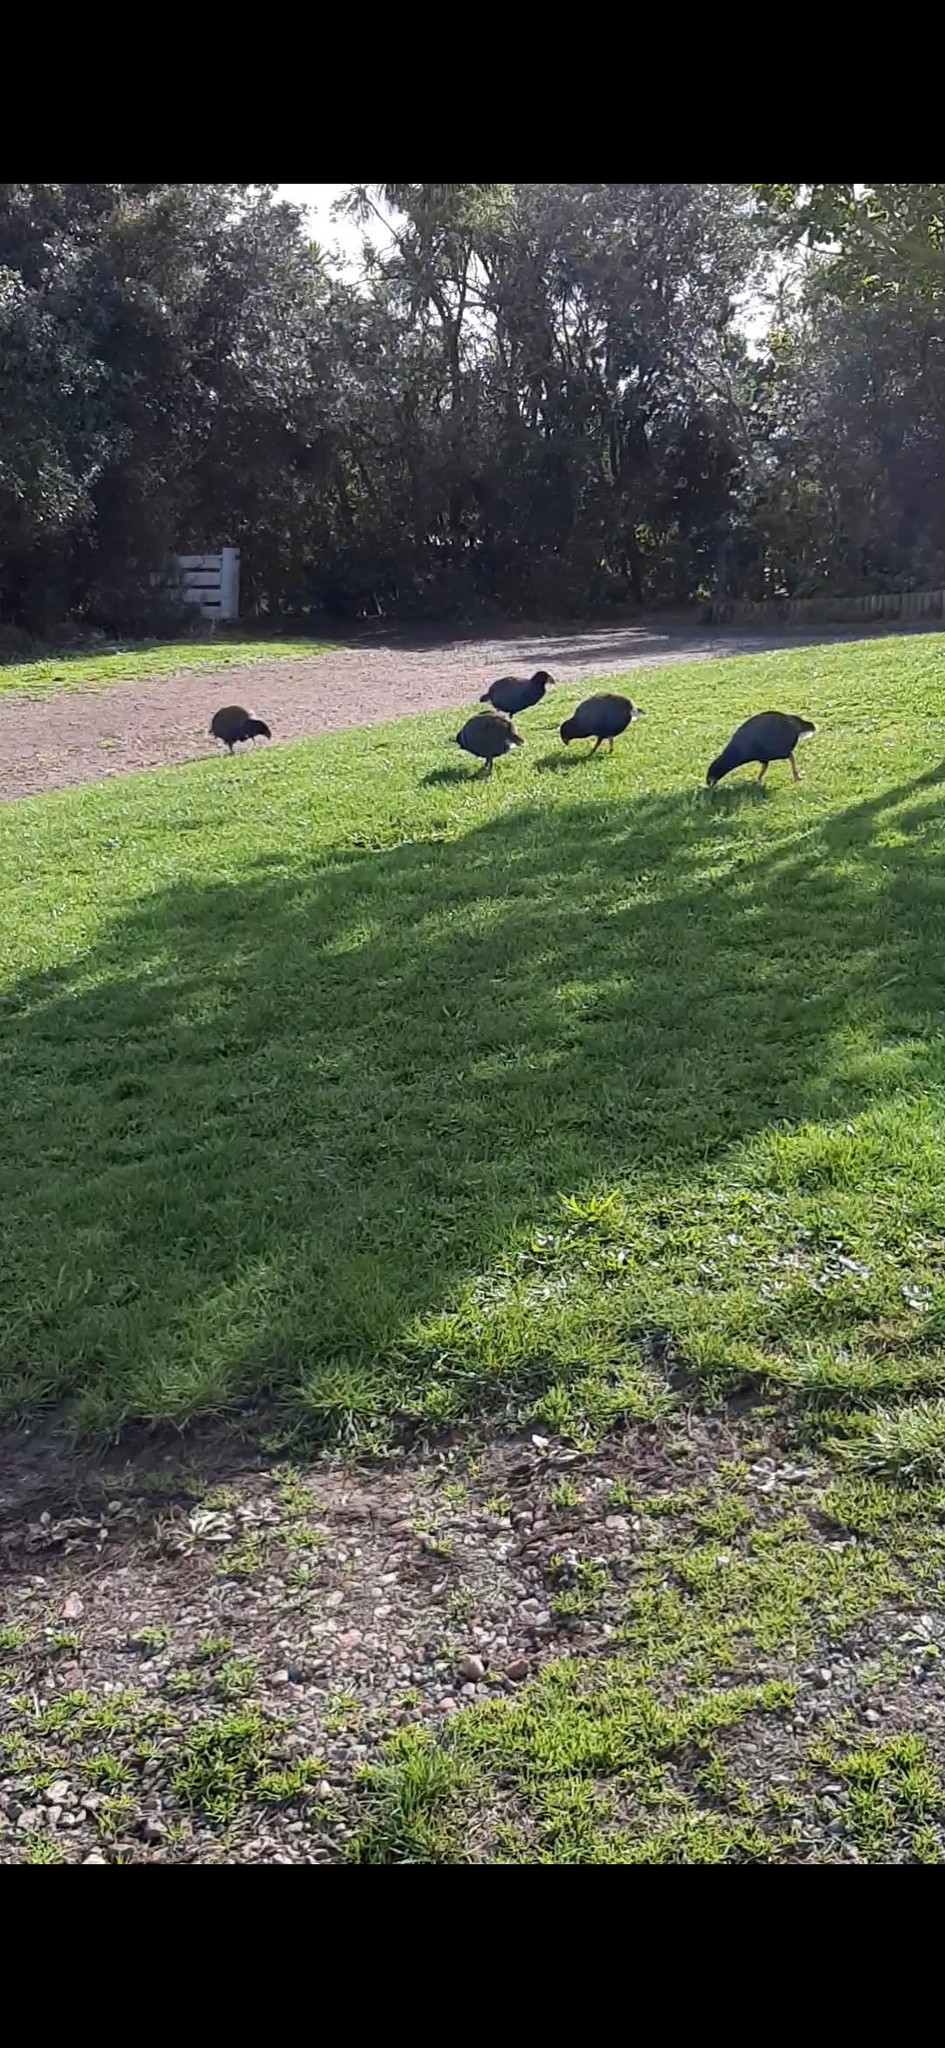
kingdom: Animalia
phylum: Chordata
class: Aves
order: Gruiformes
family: Rallidae
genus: Porphyrio
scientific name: Porphyrio hochstetteri
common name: South island takahe
